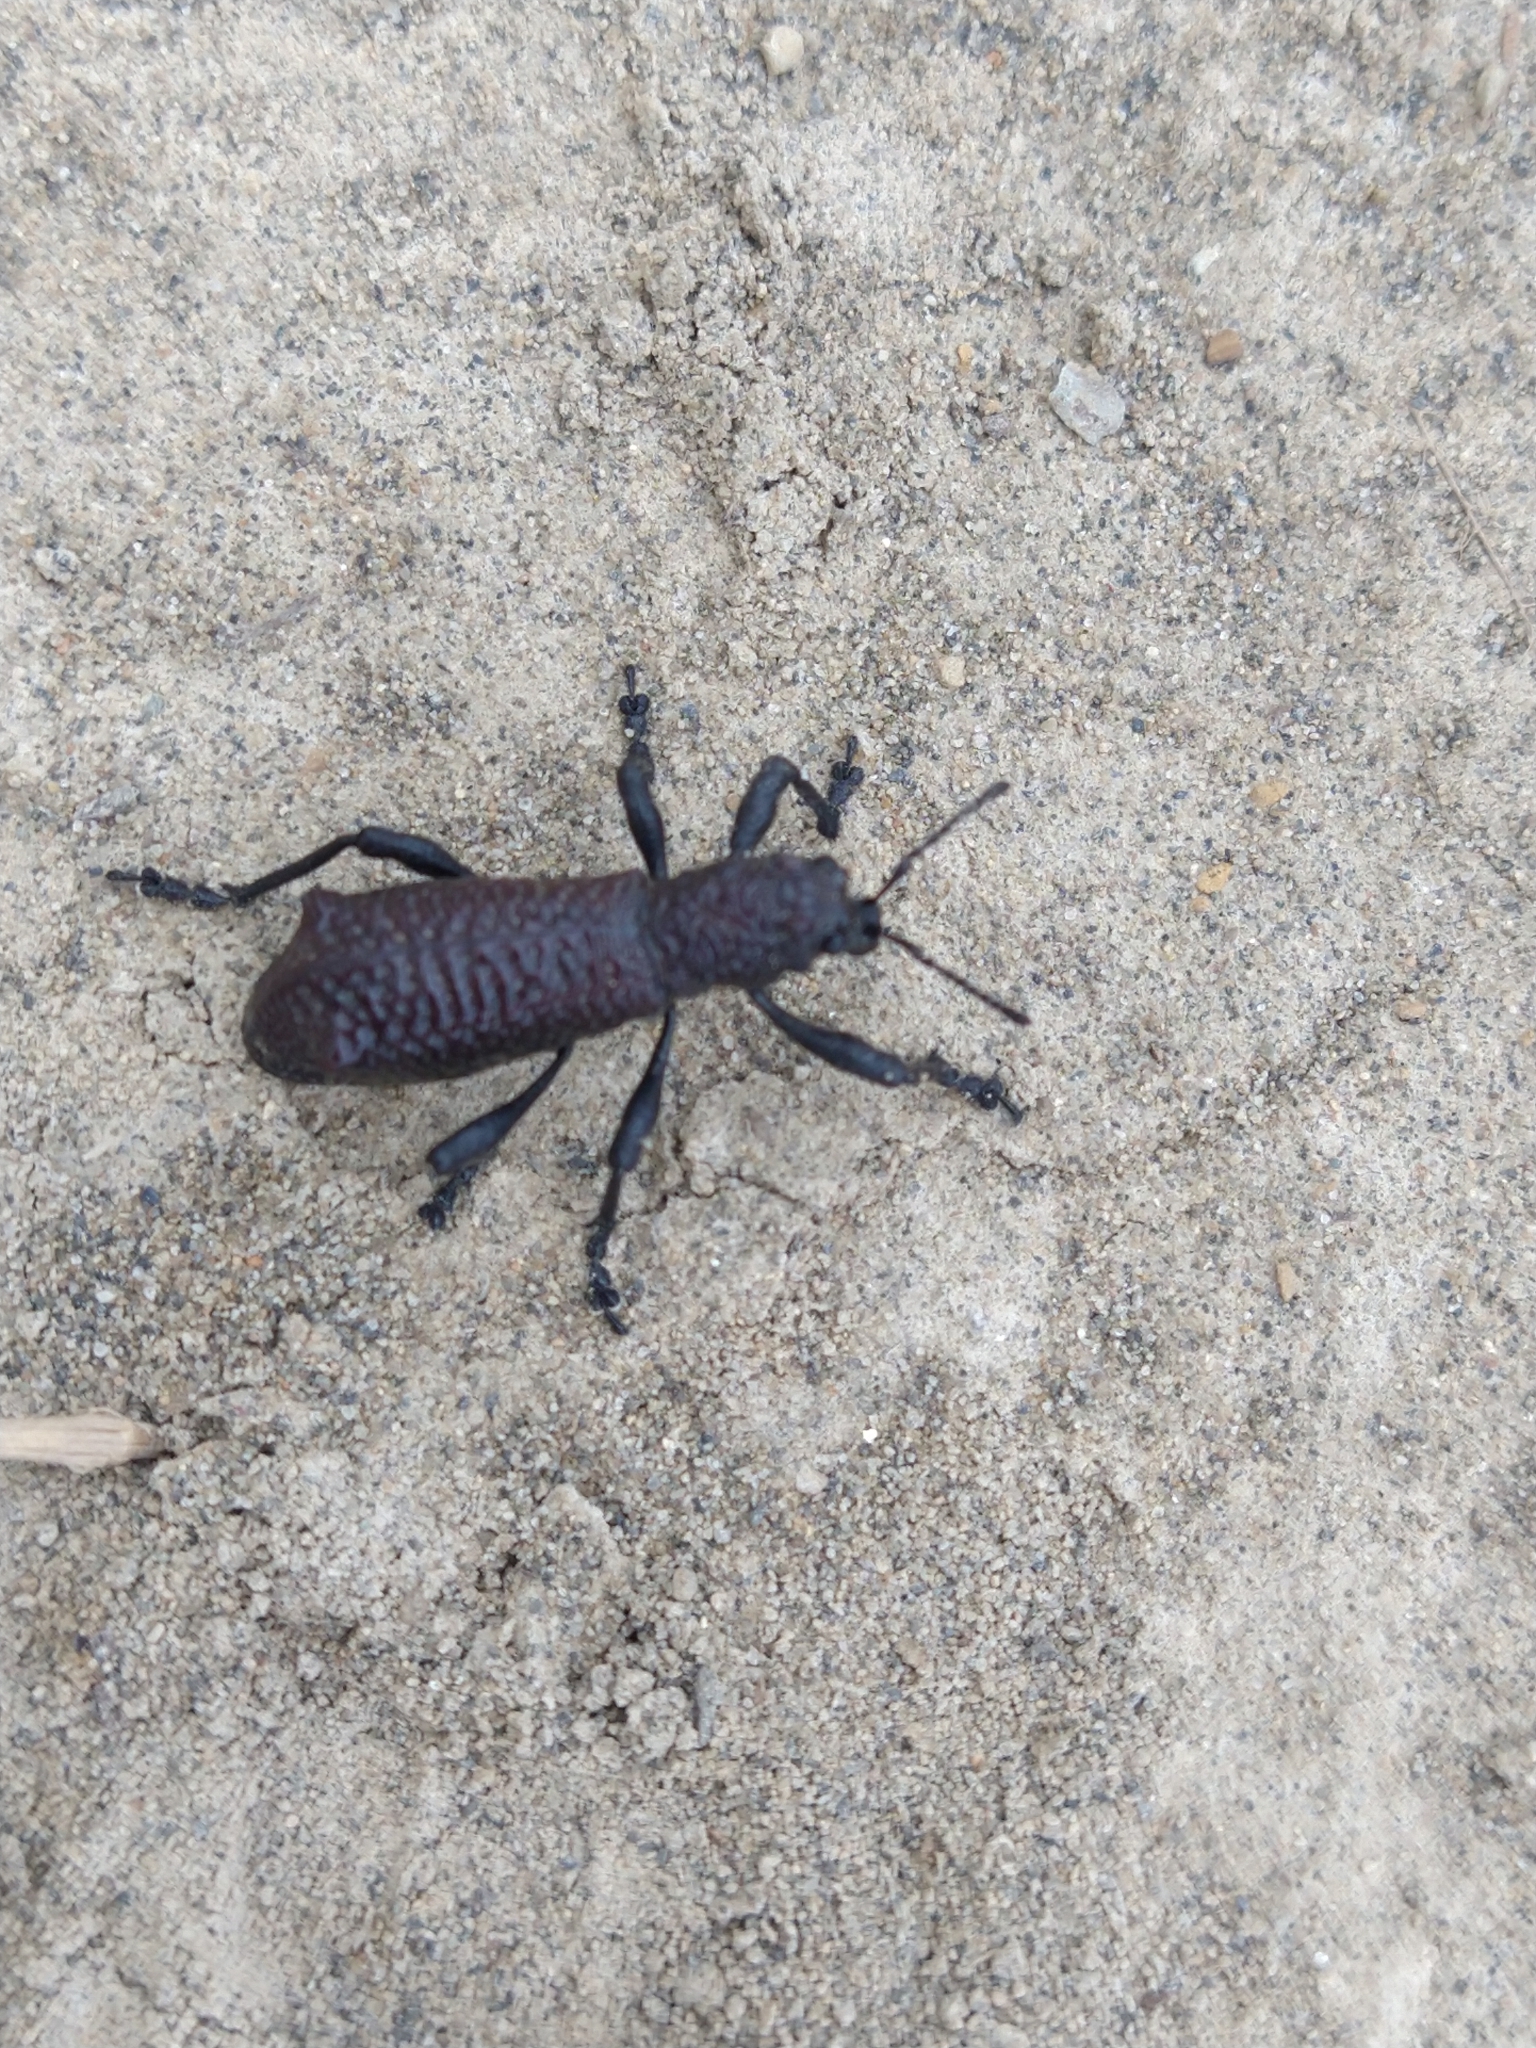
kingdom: Animalia
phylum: Arthropoda
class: Insecta
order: Coleoptera
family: Curculionidae
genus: Aegorhinus
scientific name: Aegorhinus vitulus
